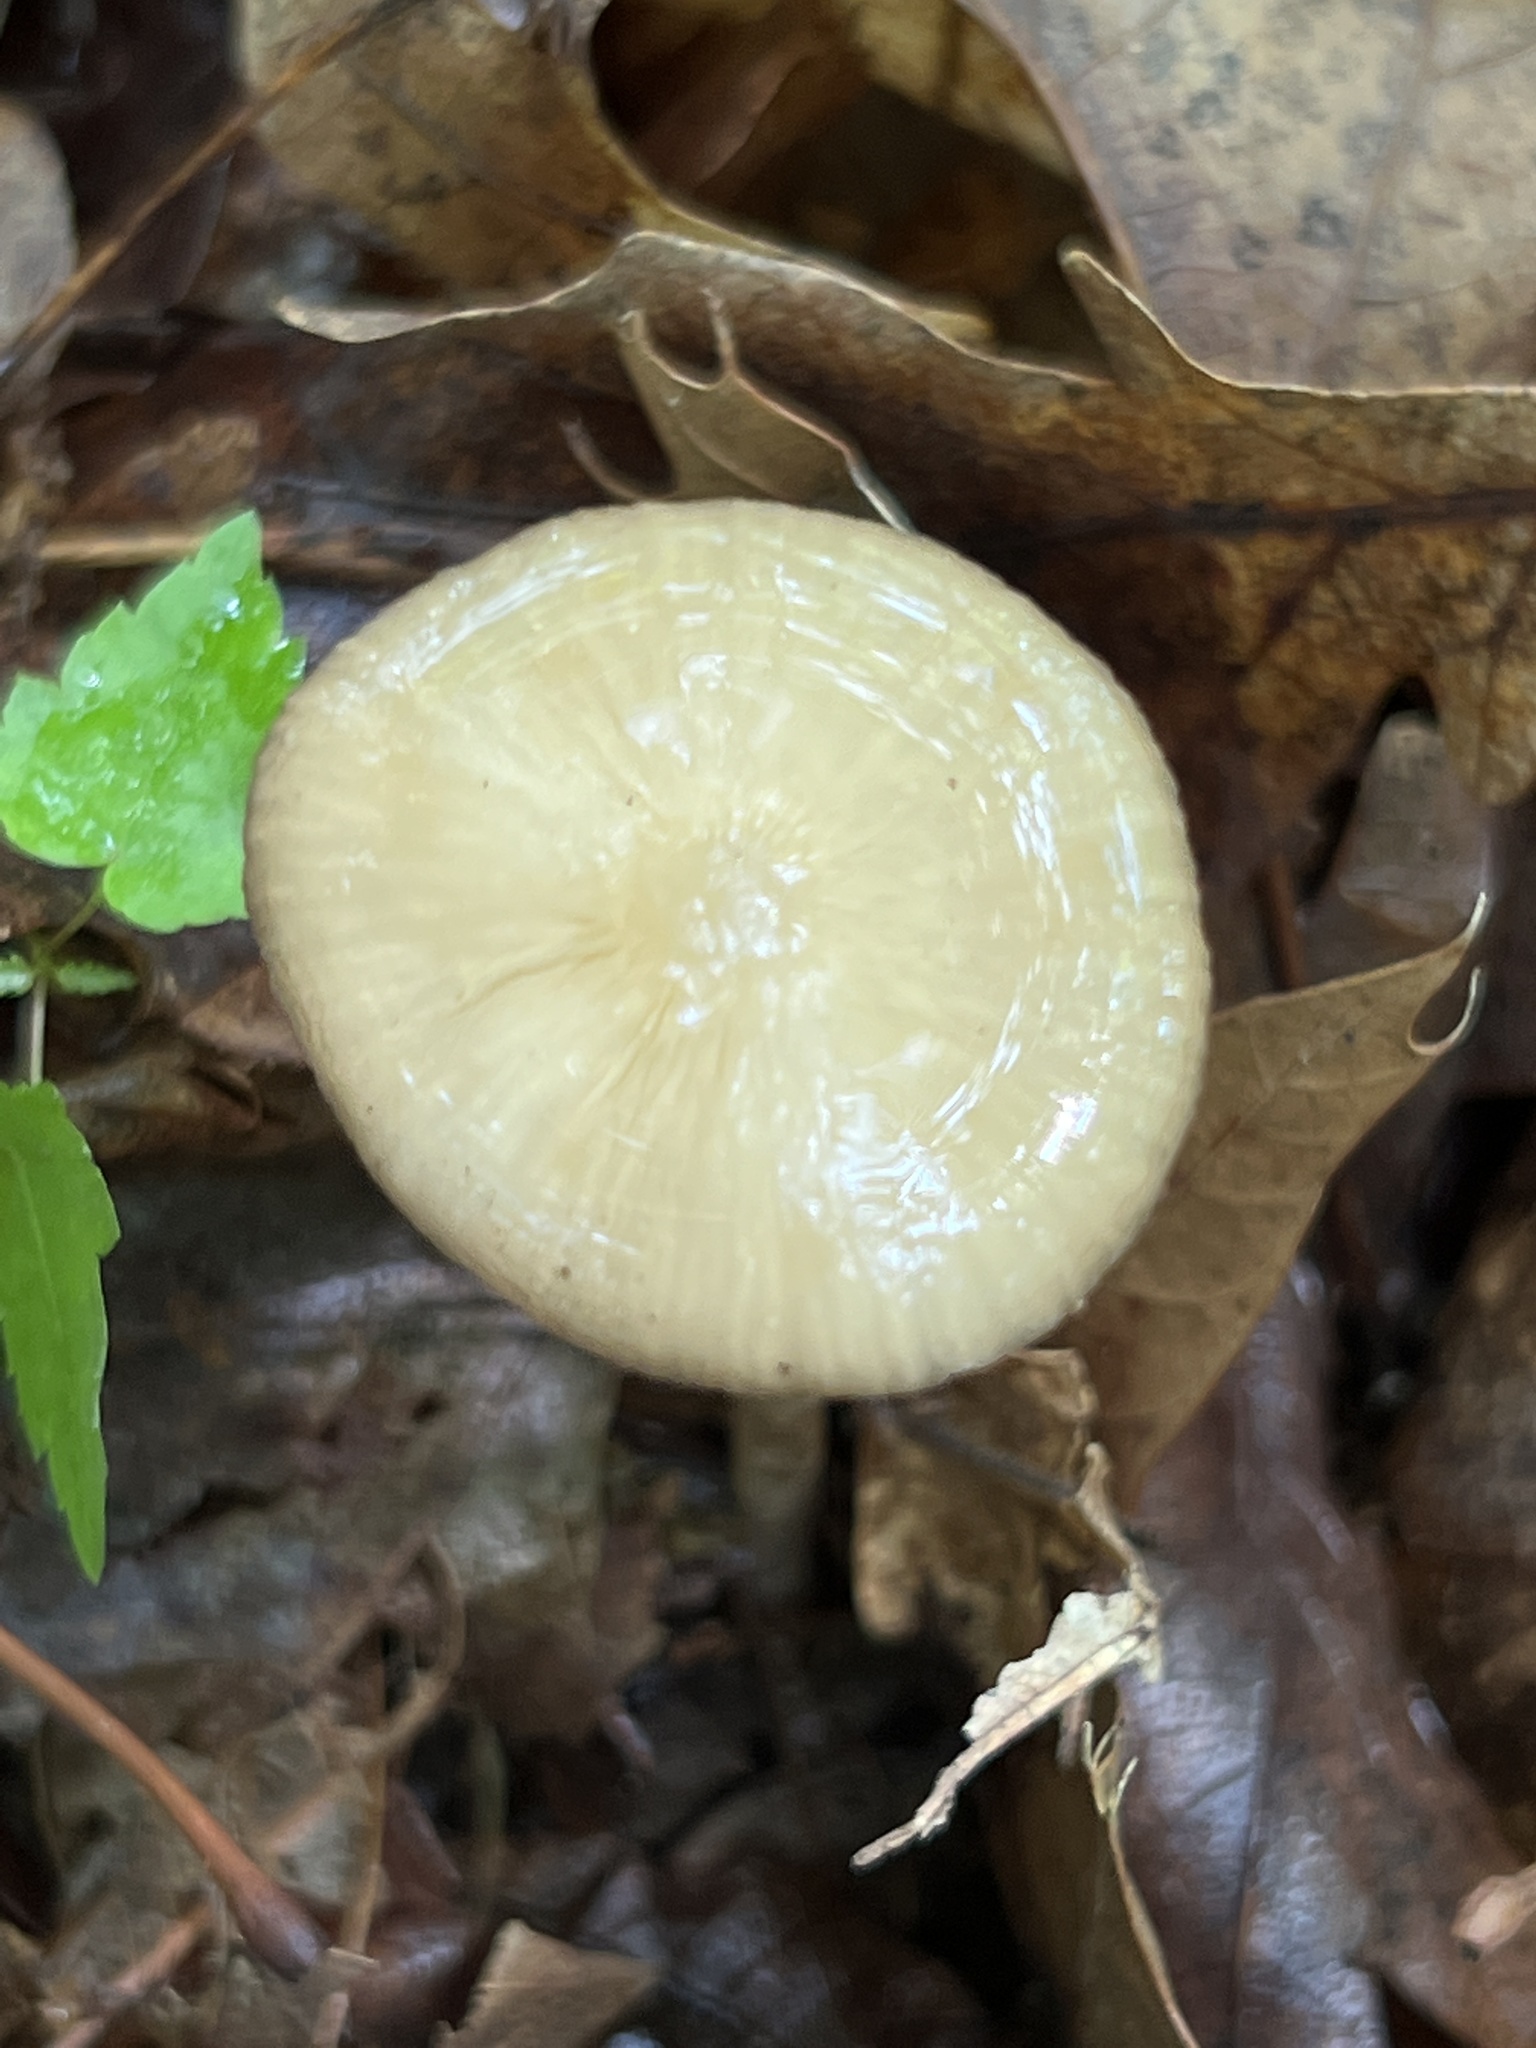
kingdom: Fungi
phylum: Basidiomycota
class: Agaricomycetes
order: Agaricales
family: Physalacriaceae
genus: Hymenopellis
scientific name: Hymenopellis furfuracea
